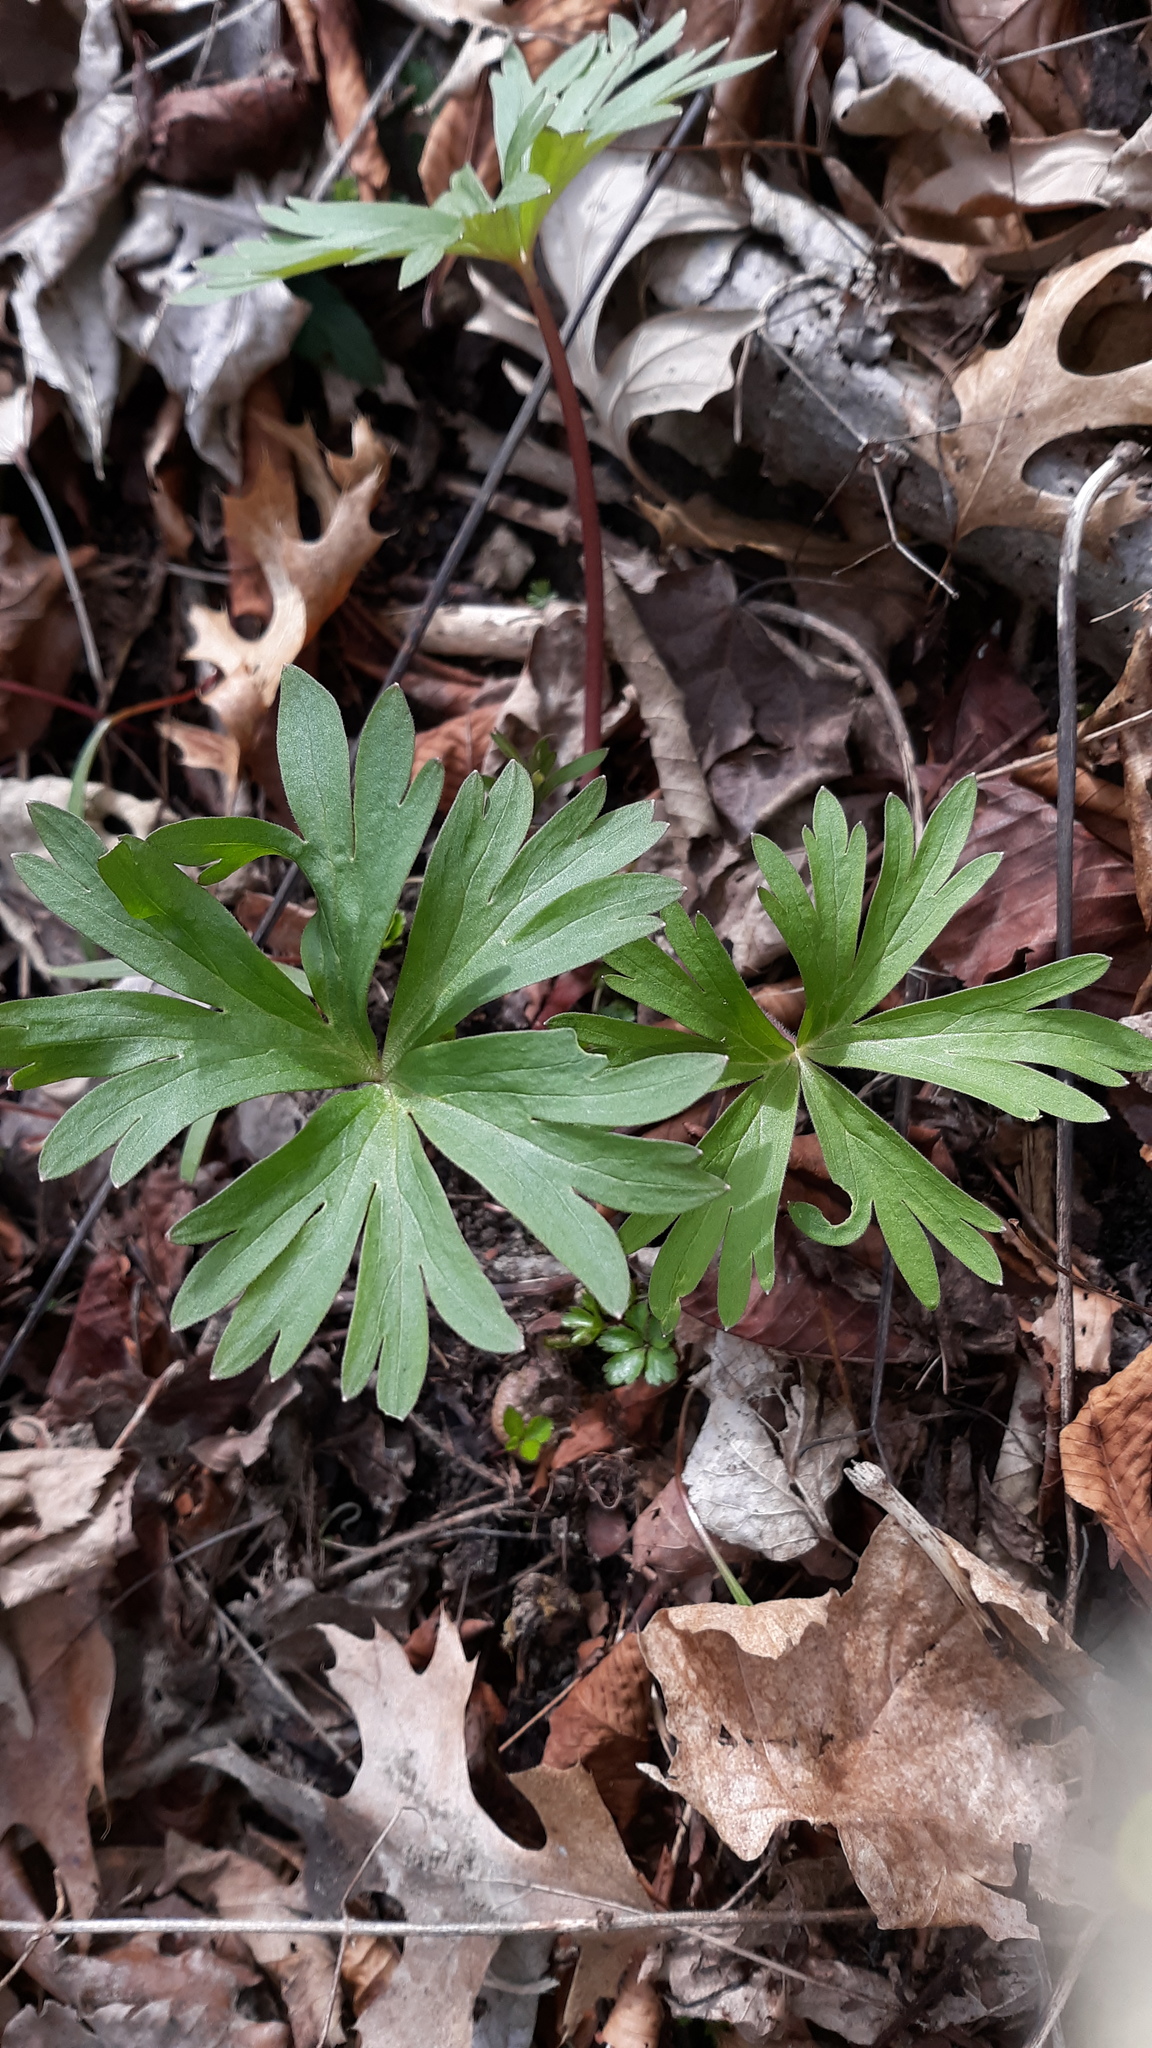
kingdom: Plantae
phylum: Tracheophyta
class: Magnoliopsida
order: Ranunculales
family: Ranunculaceae
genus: Delphinium
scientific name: Delphinium tricorne
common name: Dwarf larkspur
